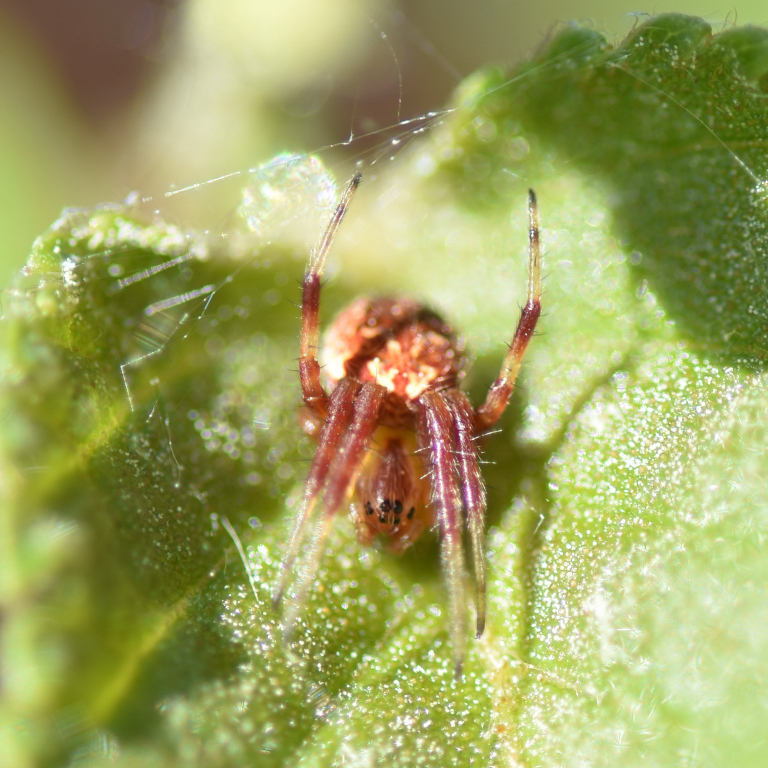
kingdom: Animalia
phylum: Arthropoda
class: Arachnida
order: Araneae
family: Araneidae
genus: Neoscona
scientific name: Neoscona arabesca
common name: Orb weavers
